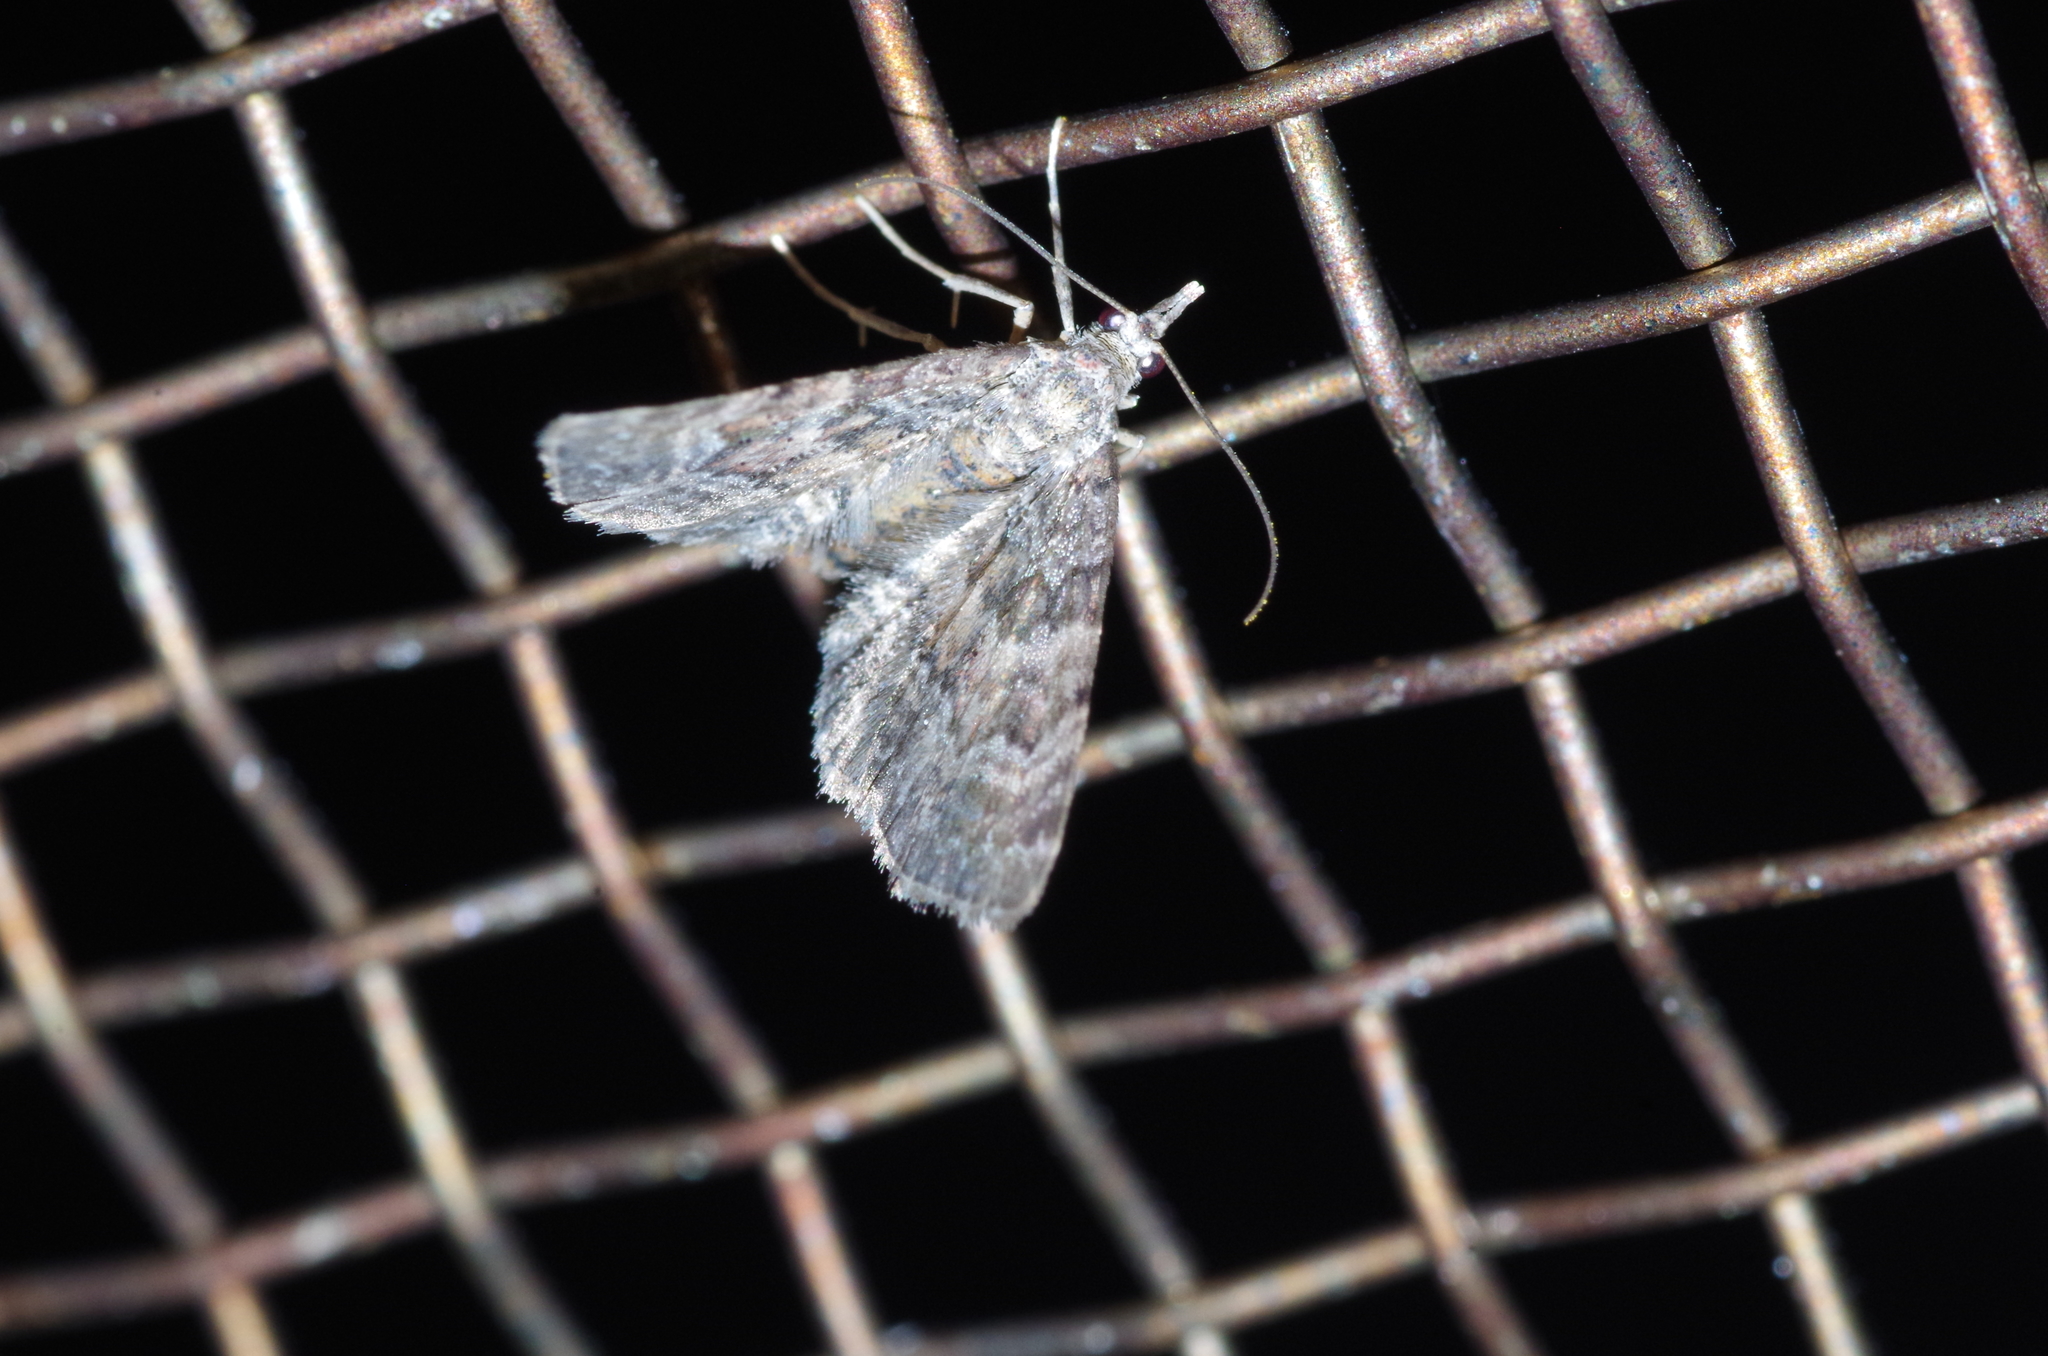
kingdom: Animalia
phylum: Arthropoda
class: Insecta
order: Lepidoptera
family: Geometridae
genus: Gymnoscelis
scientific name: Gymnoscelis esakii
